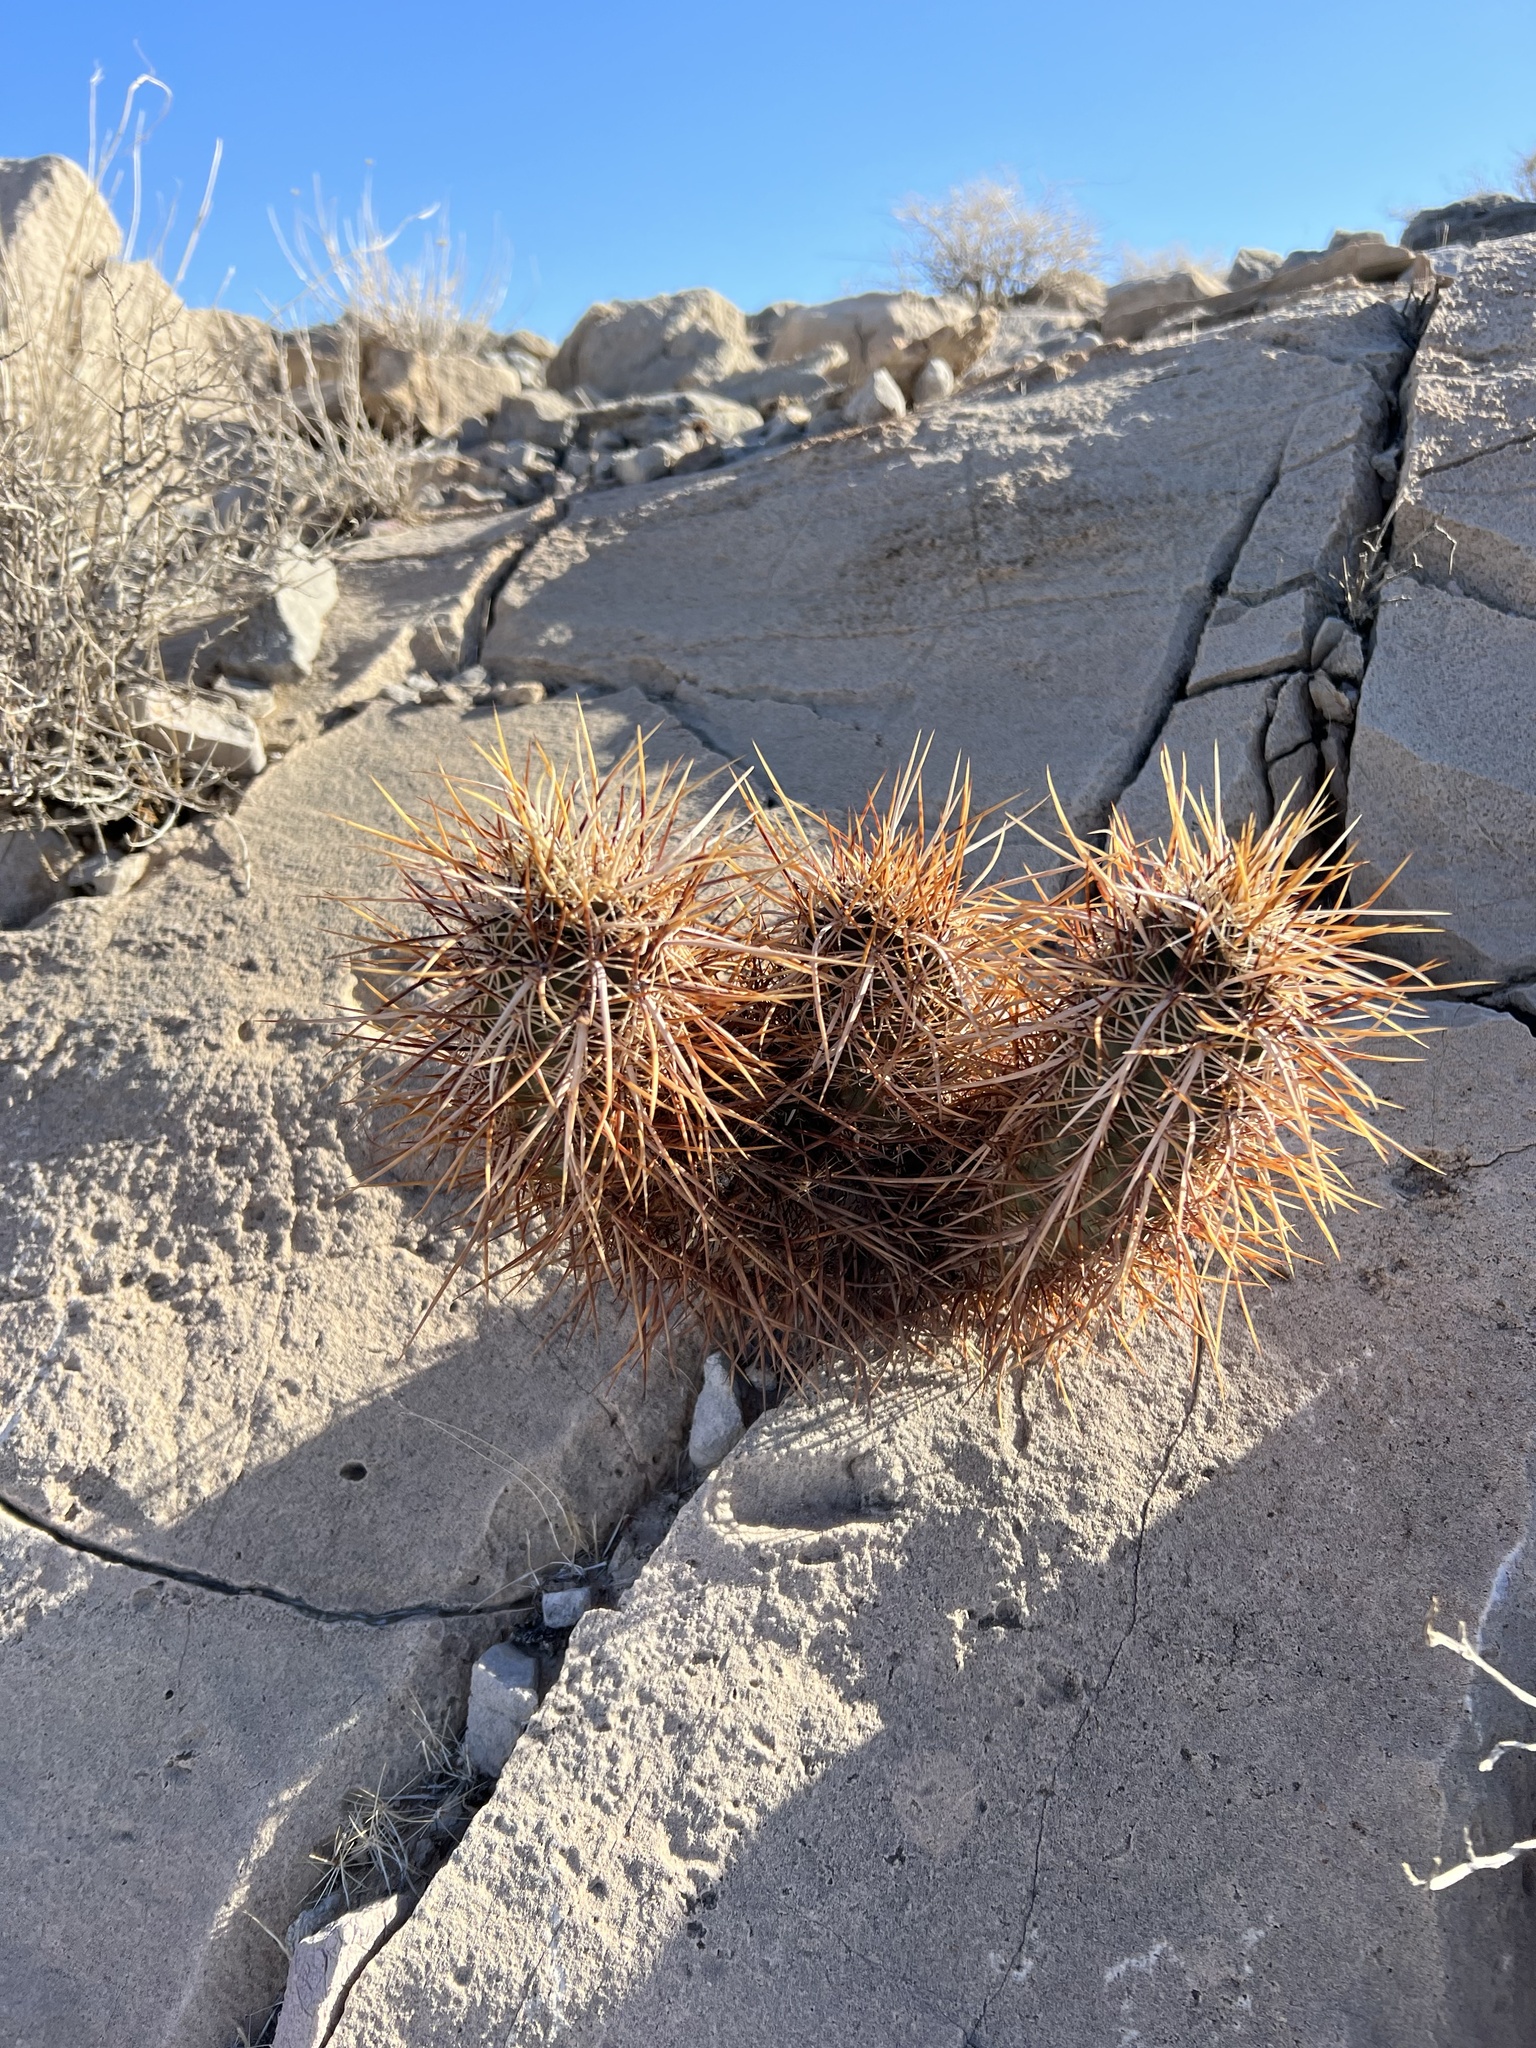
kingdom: Plantae
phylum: Tracheophyta
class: Magnoliopsida
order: Caryophyllales
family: Cactaceae
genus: Echinocereus
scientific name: Echinocereus engelmannii
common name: Engelmann's hedgehog cactus
